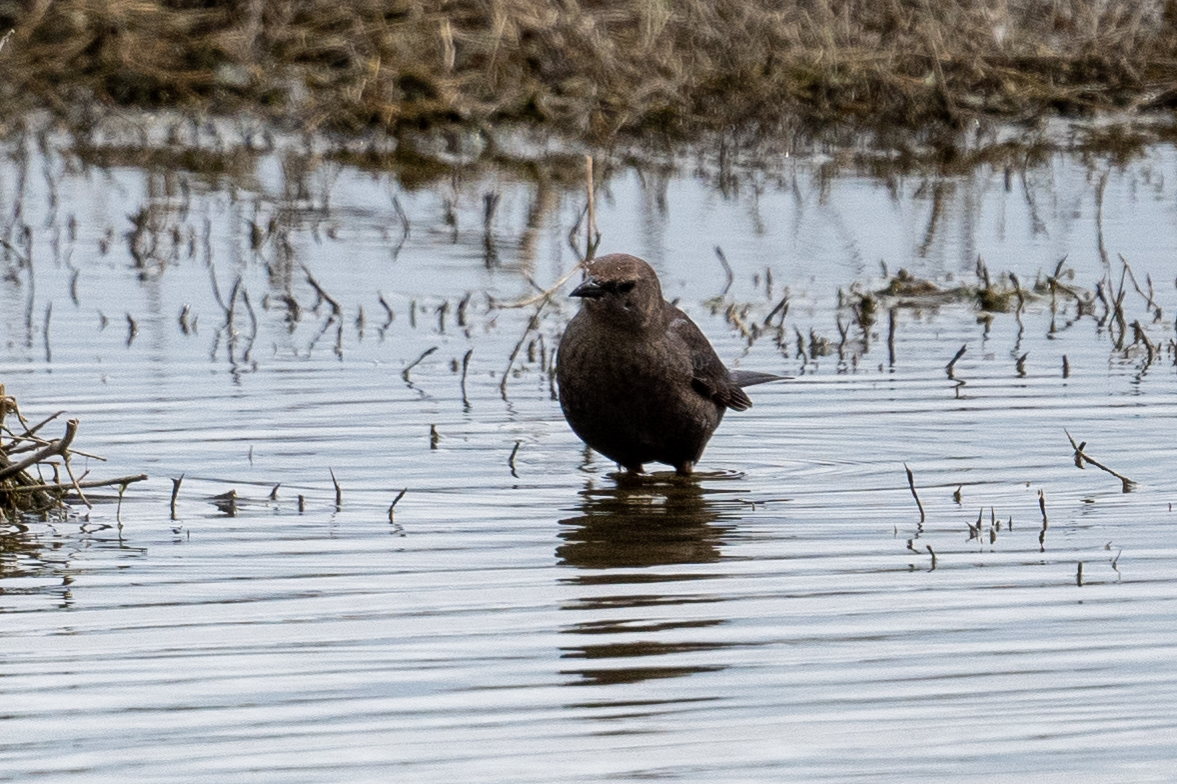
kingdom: Animalia
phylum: Chordata
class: Aves
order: Passeriformes
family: Icteridae
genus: Euphagus
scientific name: Euphagus cyanocephalus
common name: Brewer's blackbird
